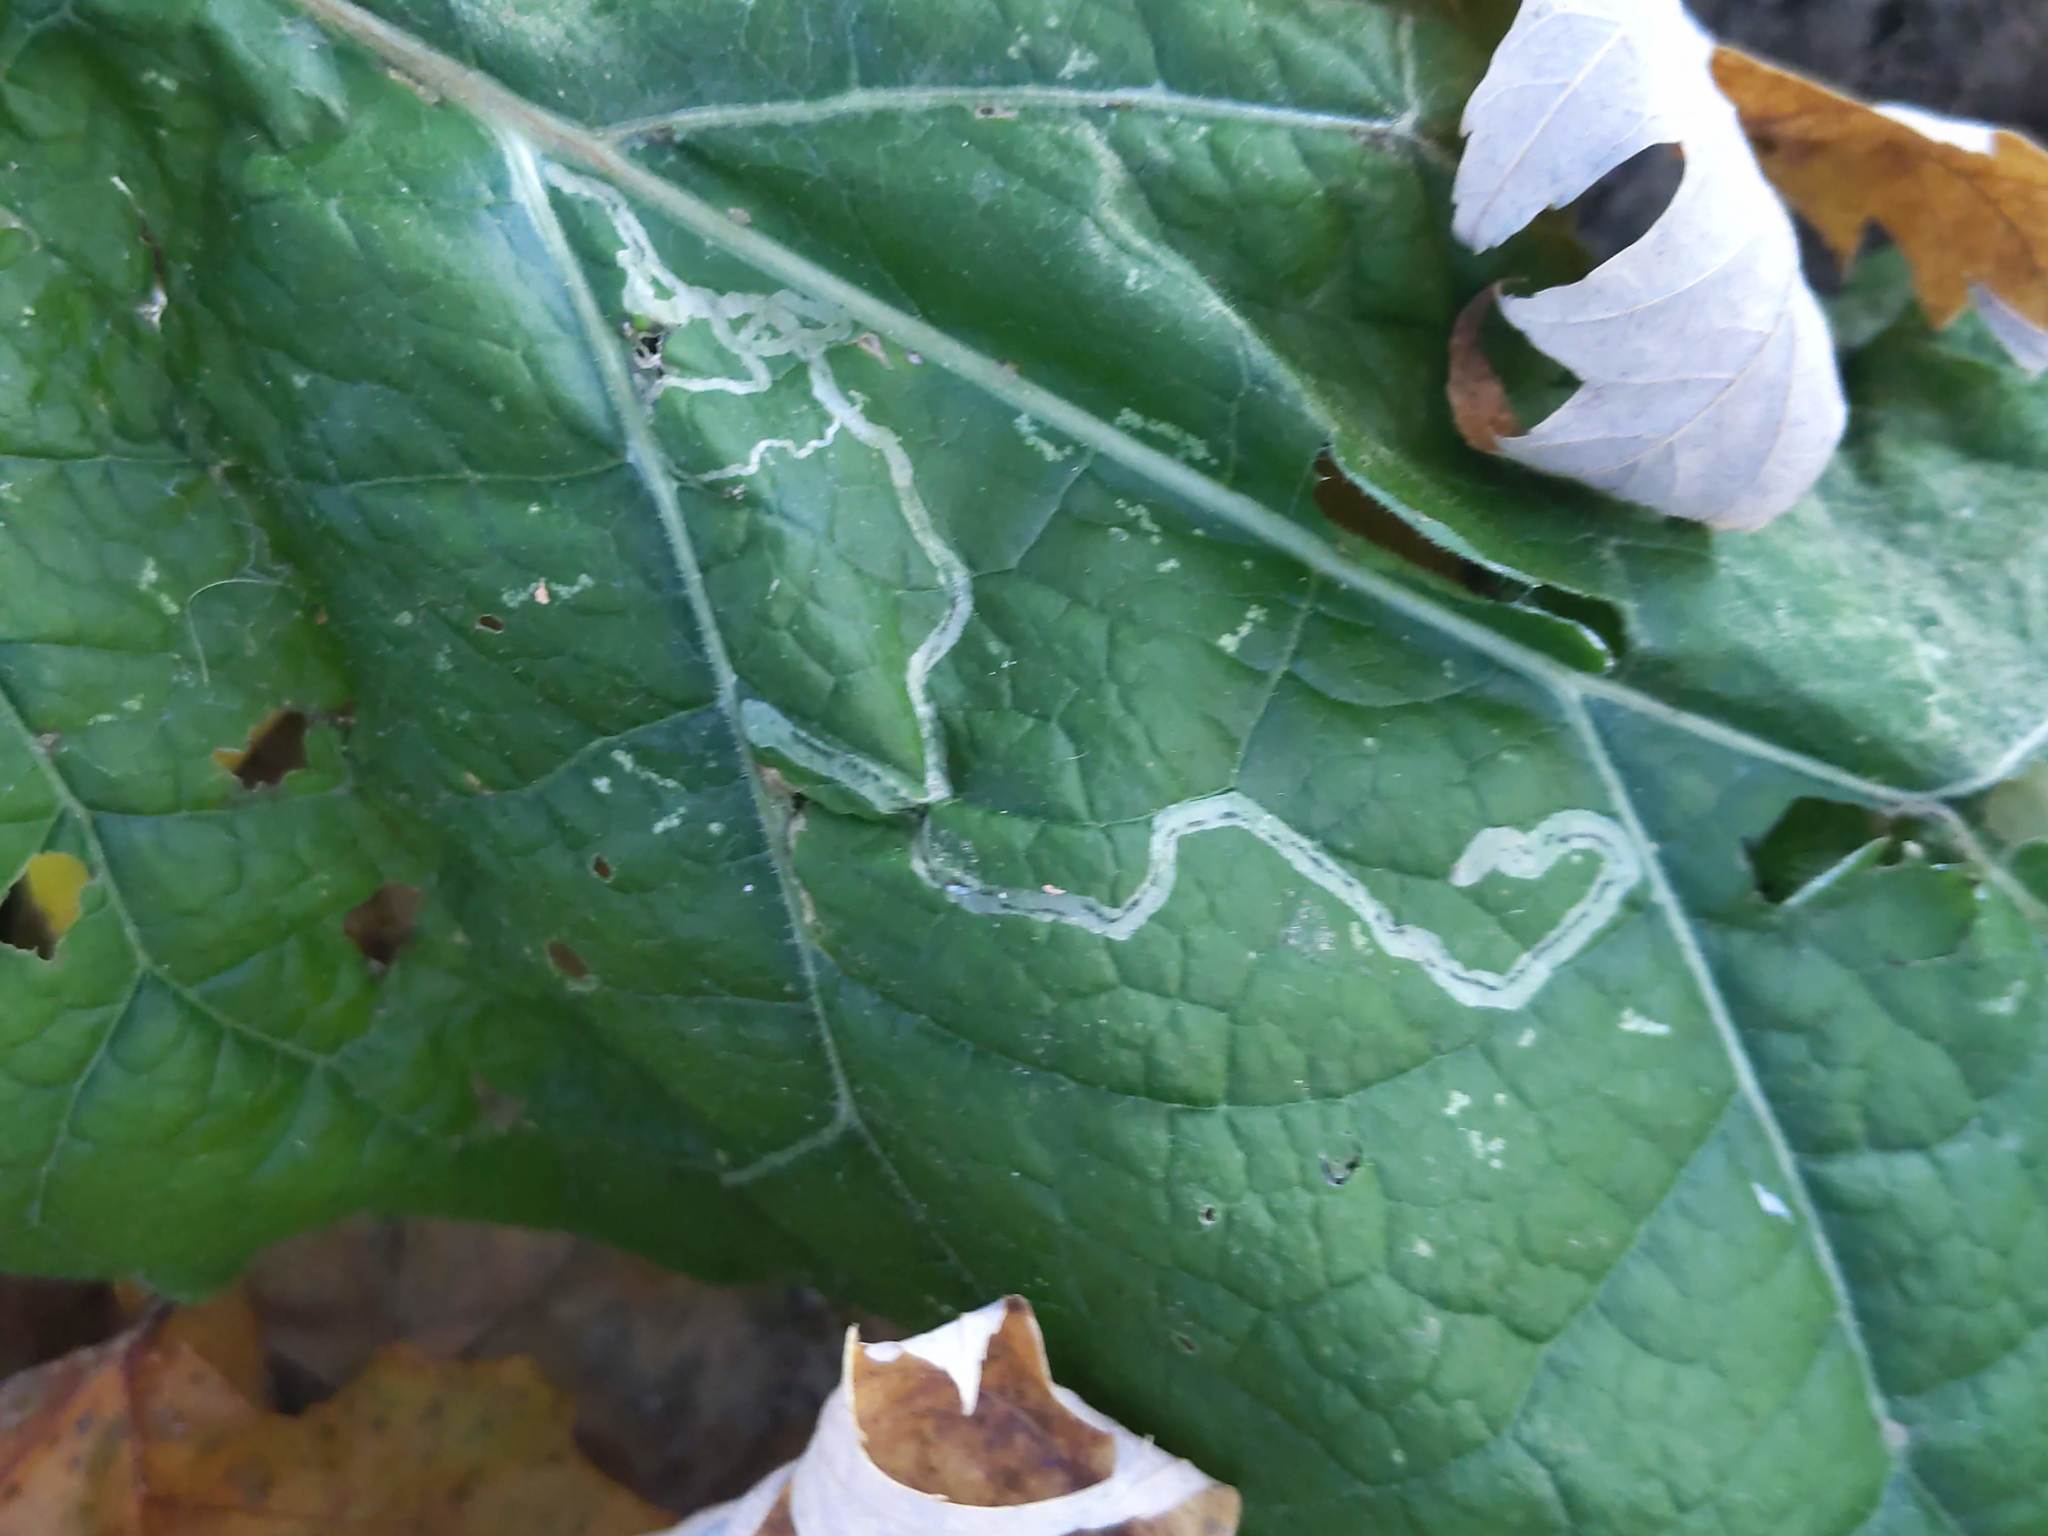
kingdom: Animalia
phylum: Arthropoda
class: Insecta
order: Diptera
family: Agromyzidae
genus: Liriomyza
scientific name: Liriomyza arctii
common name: Burdock leafminer
